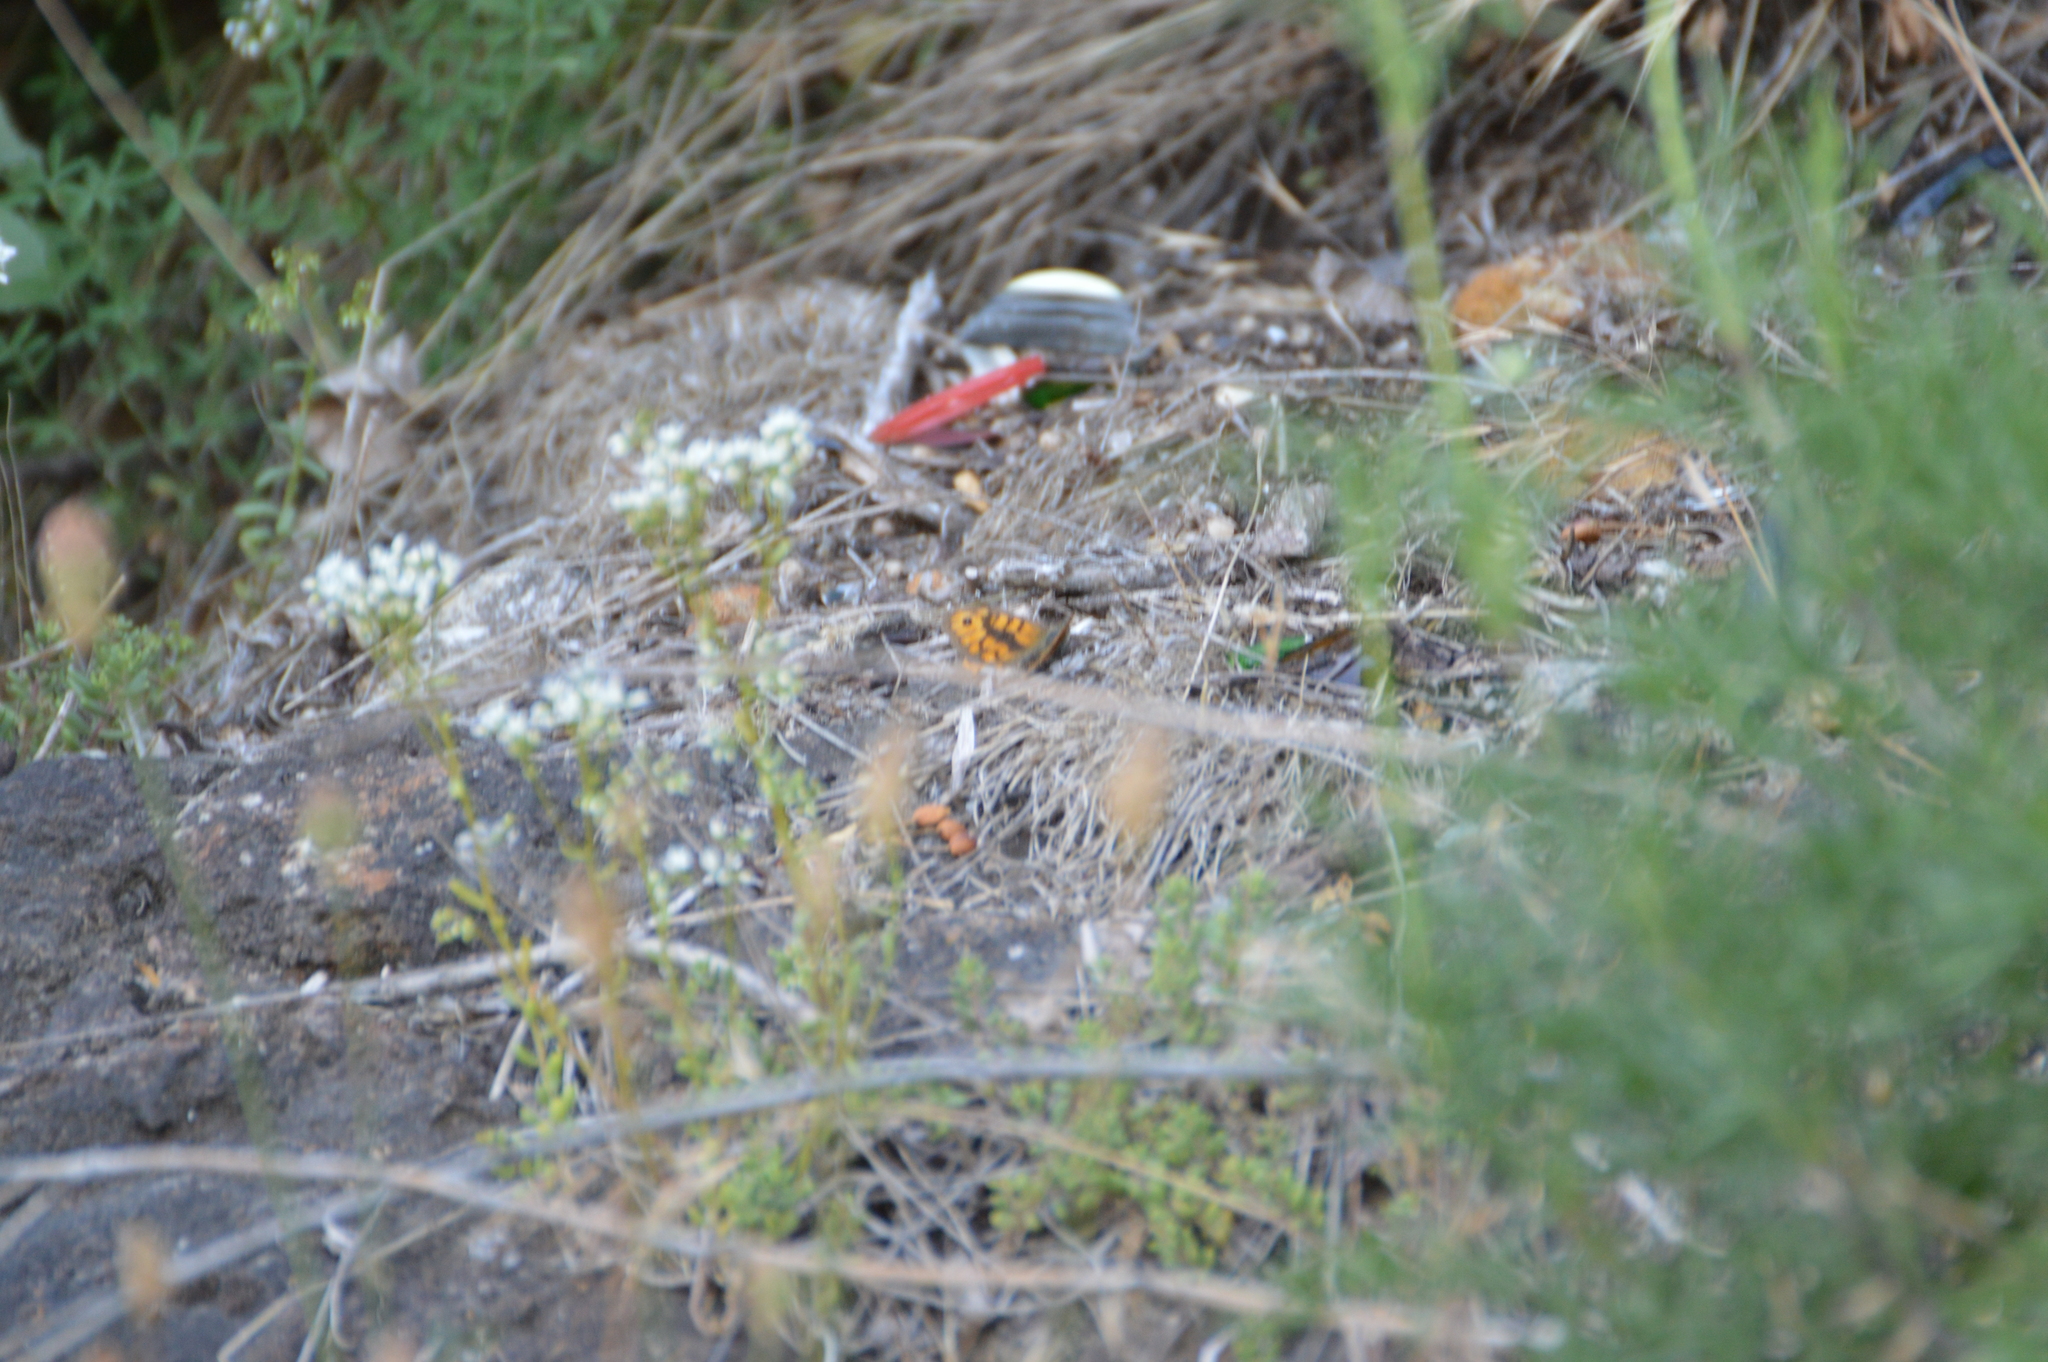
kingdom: Animalia
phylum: Arthropoda
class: Insecta
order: Lepidoptera
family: Nymphalidae
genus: Pararge
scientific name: Pararge Lasiommata megera
